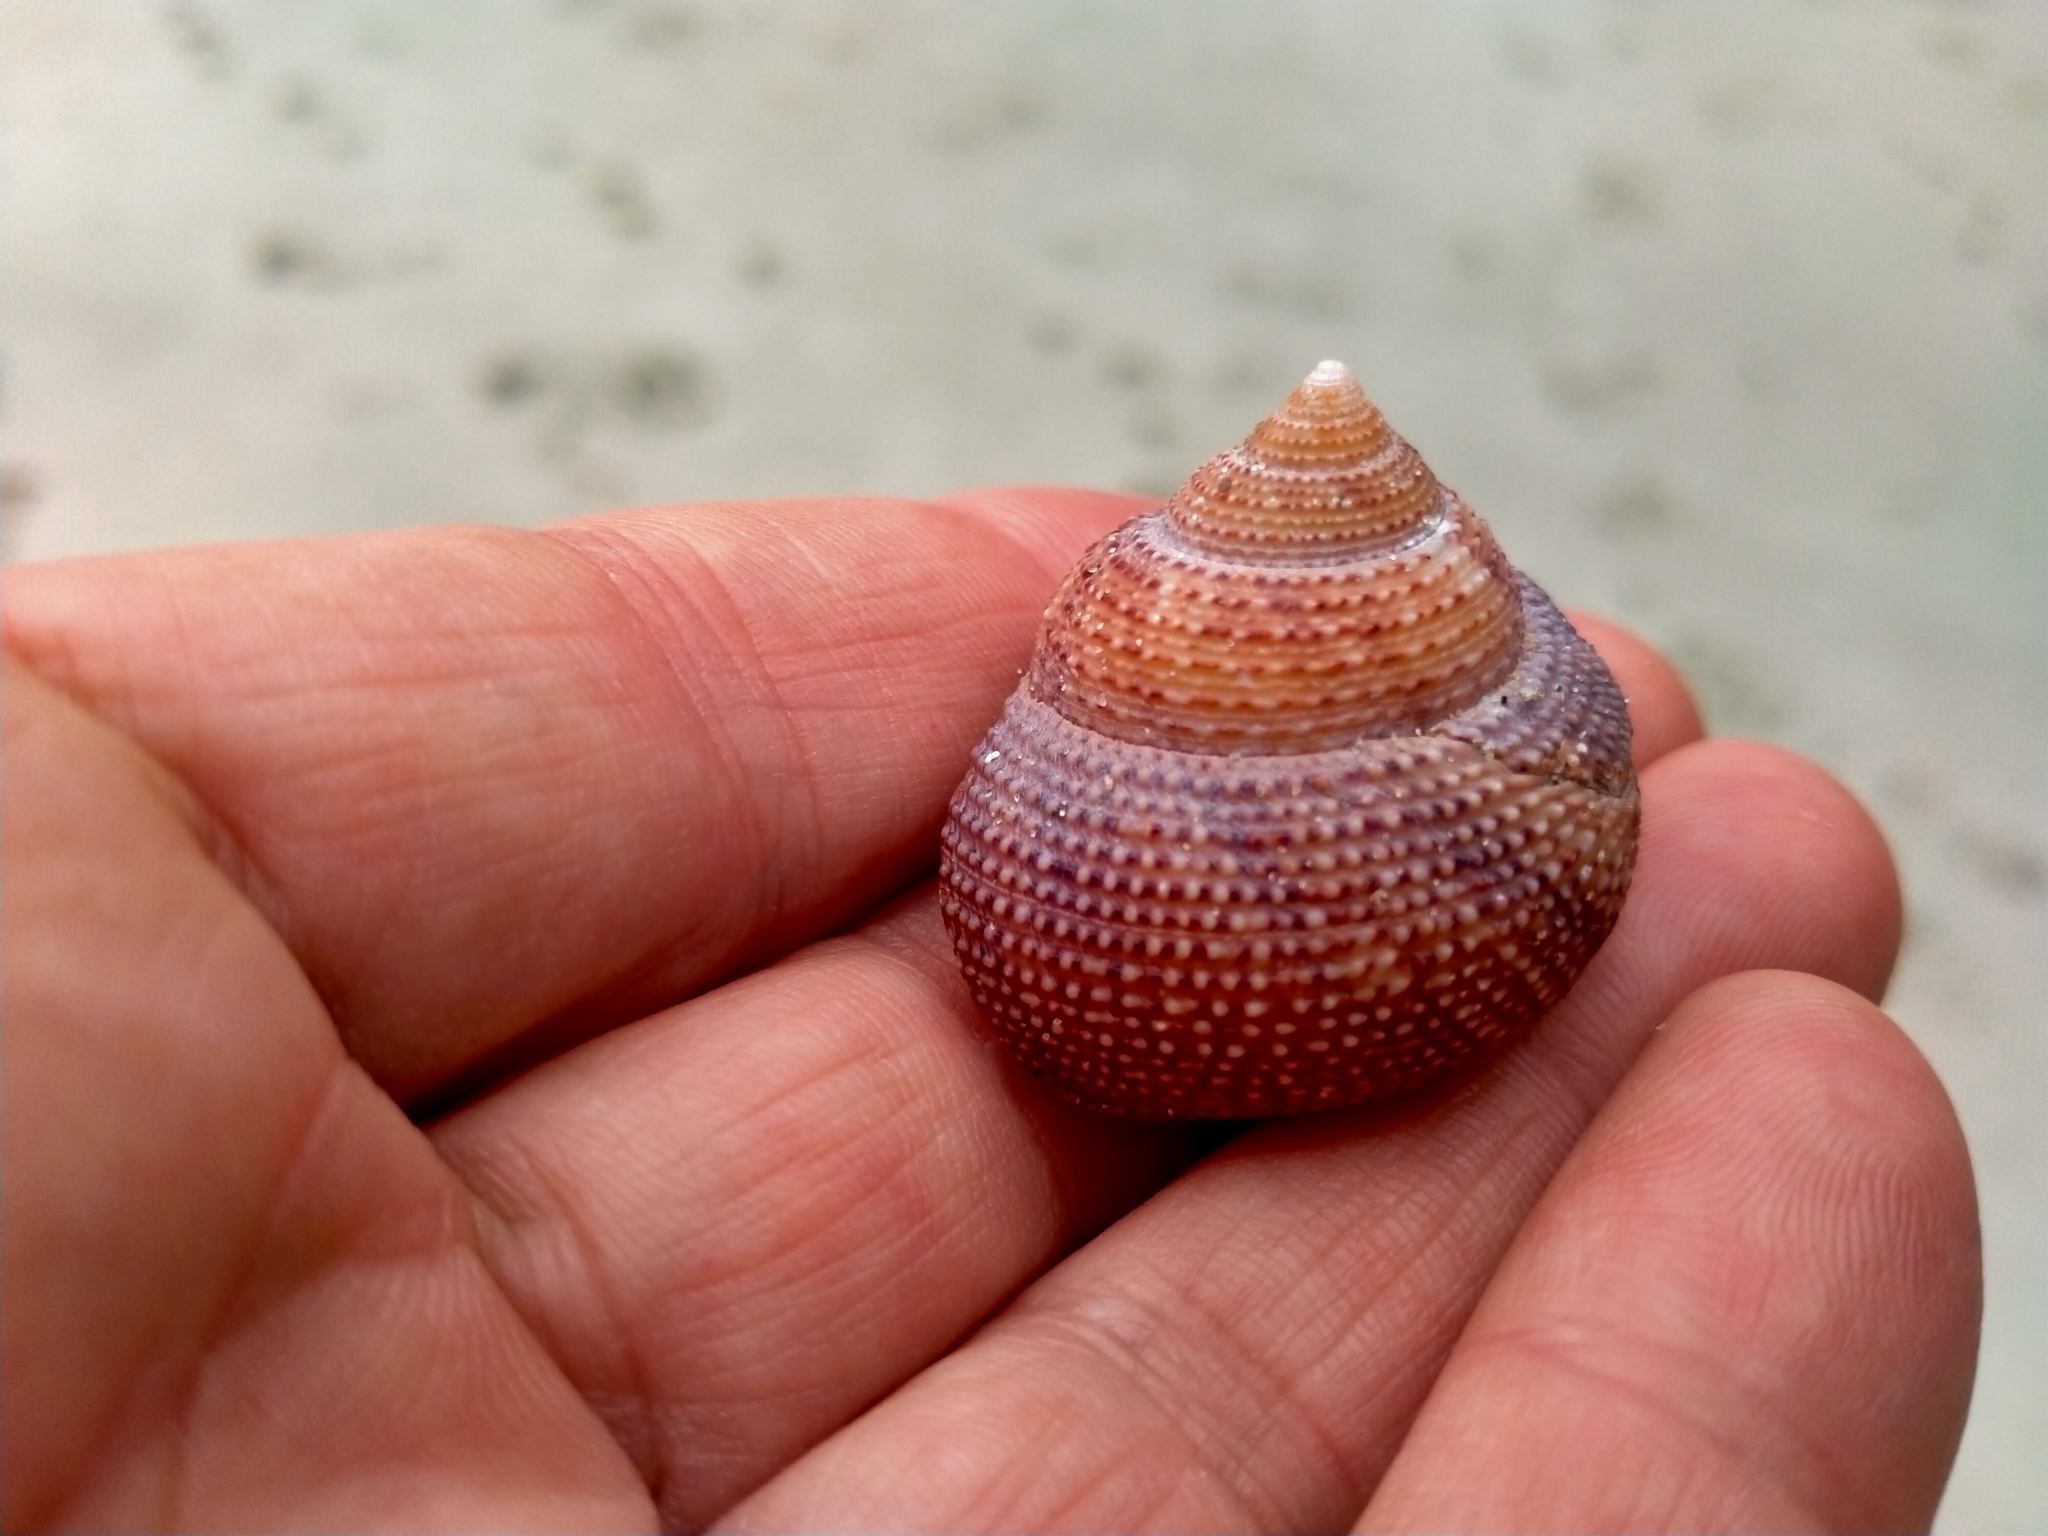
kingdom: Animalia
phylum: Mollusca
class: Gastropoda
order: Trochida
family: Calliostomatidae
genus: Maurea
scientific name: Maurea punctulata
